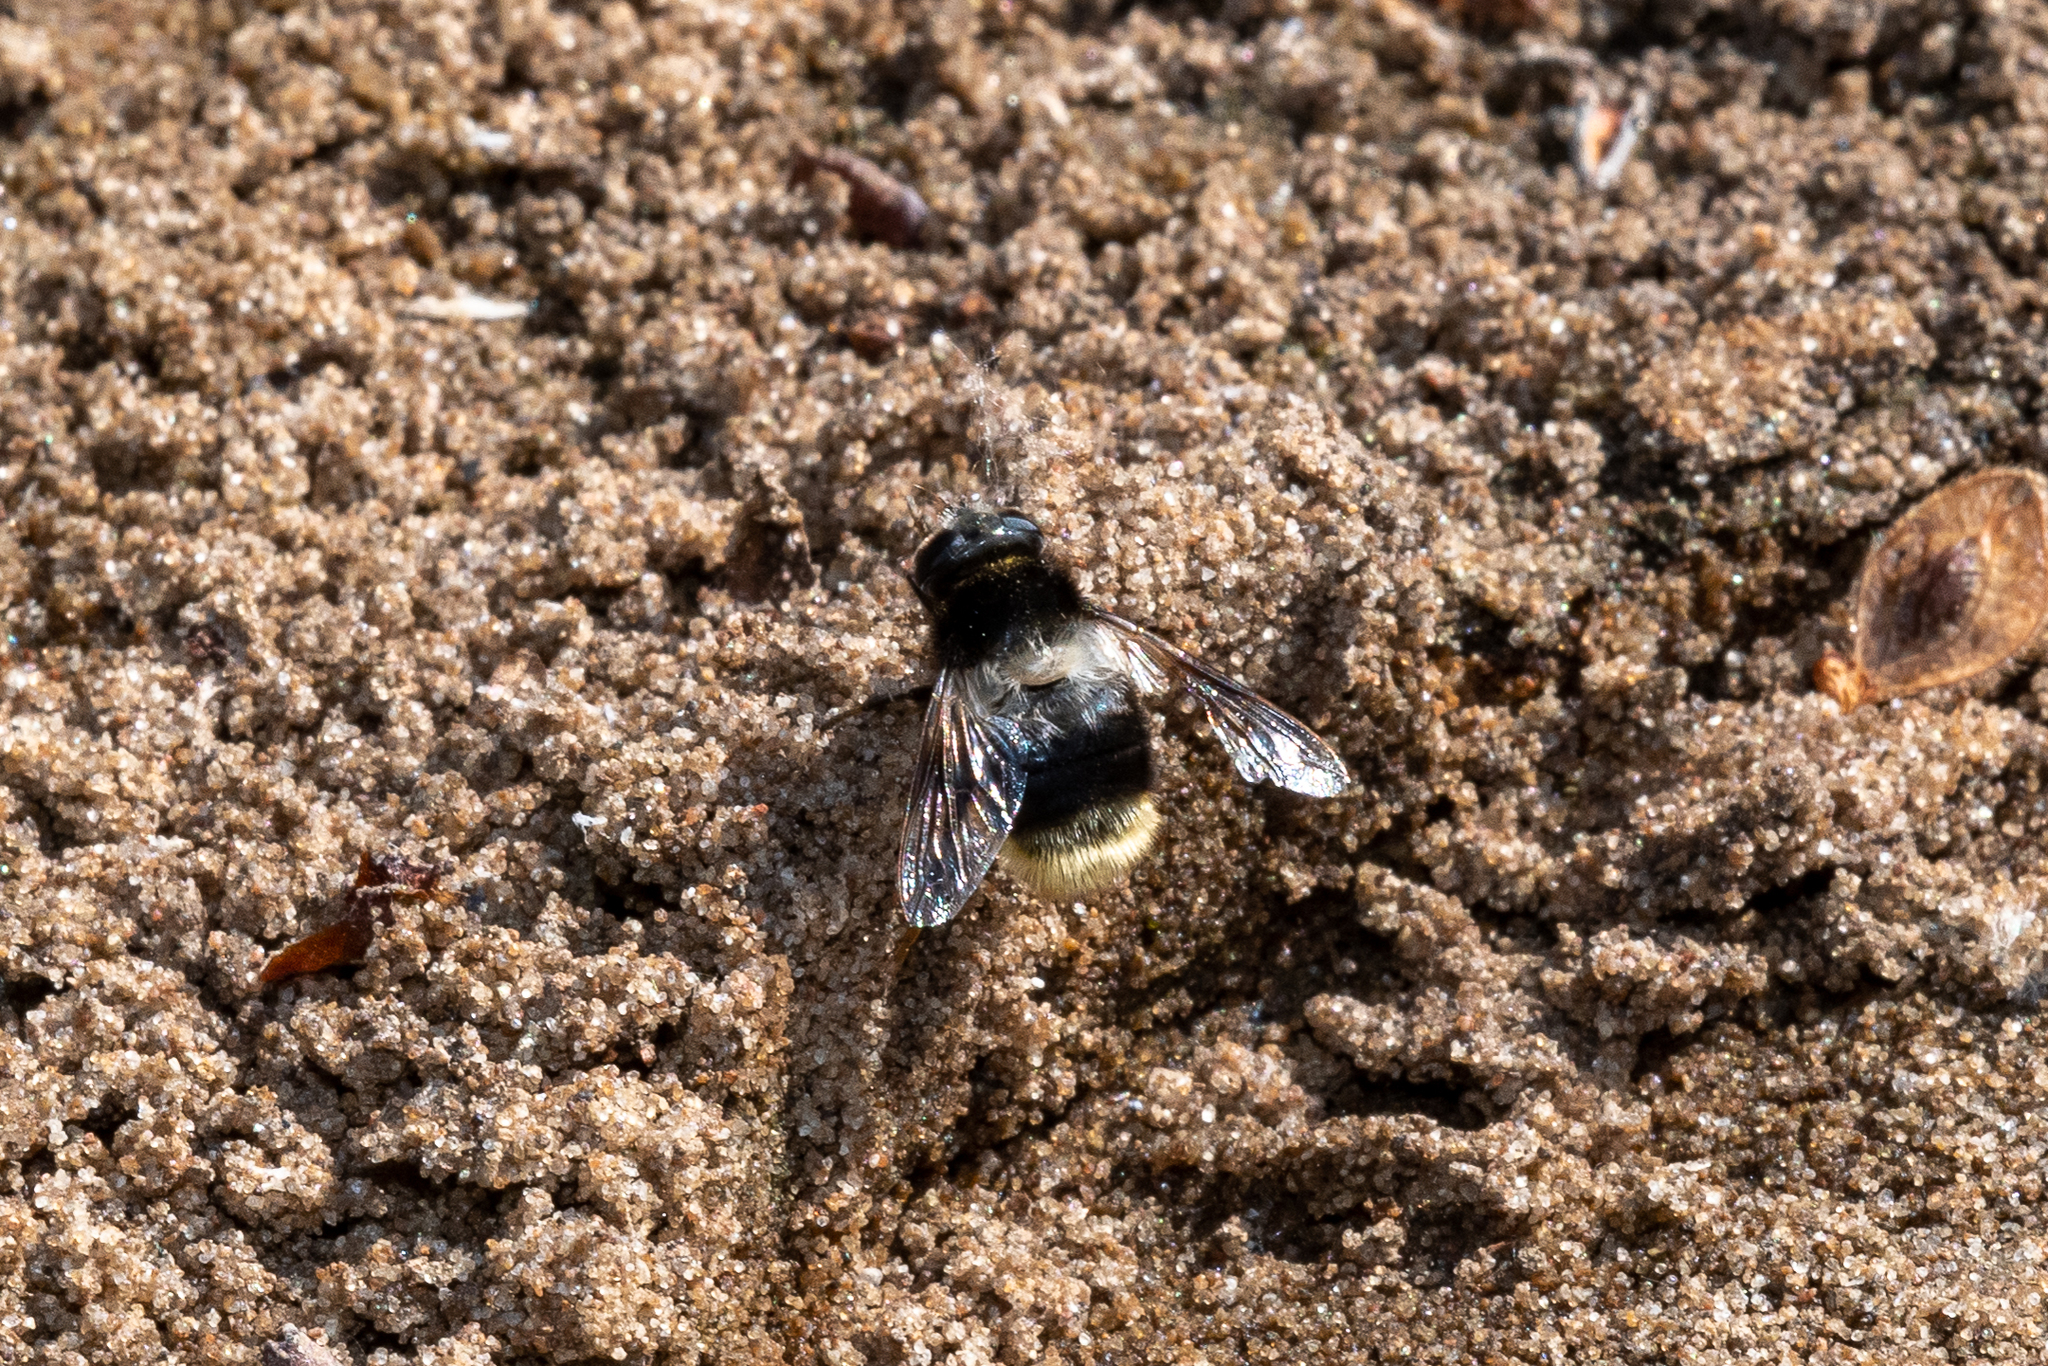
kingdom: Animalia
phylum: Arthropoda
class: Insecta
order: Diptera
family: Syrphidae
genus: Eristalis
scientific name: Eristalis oestracea
